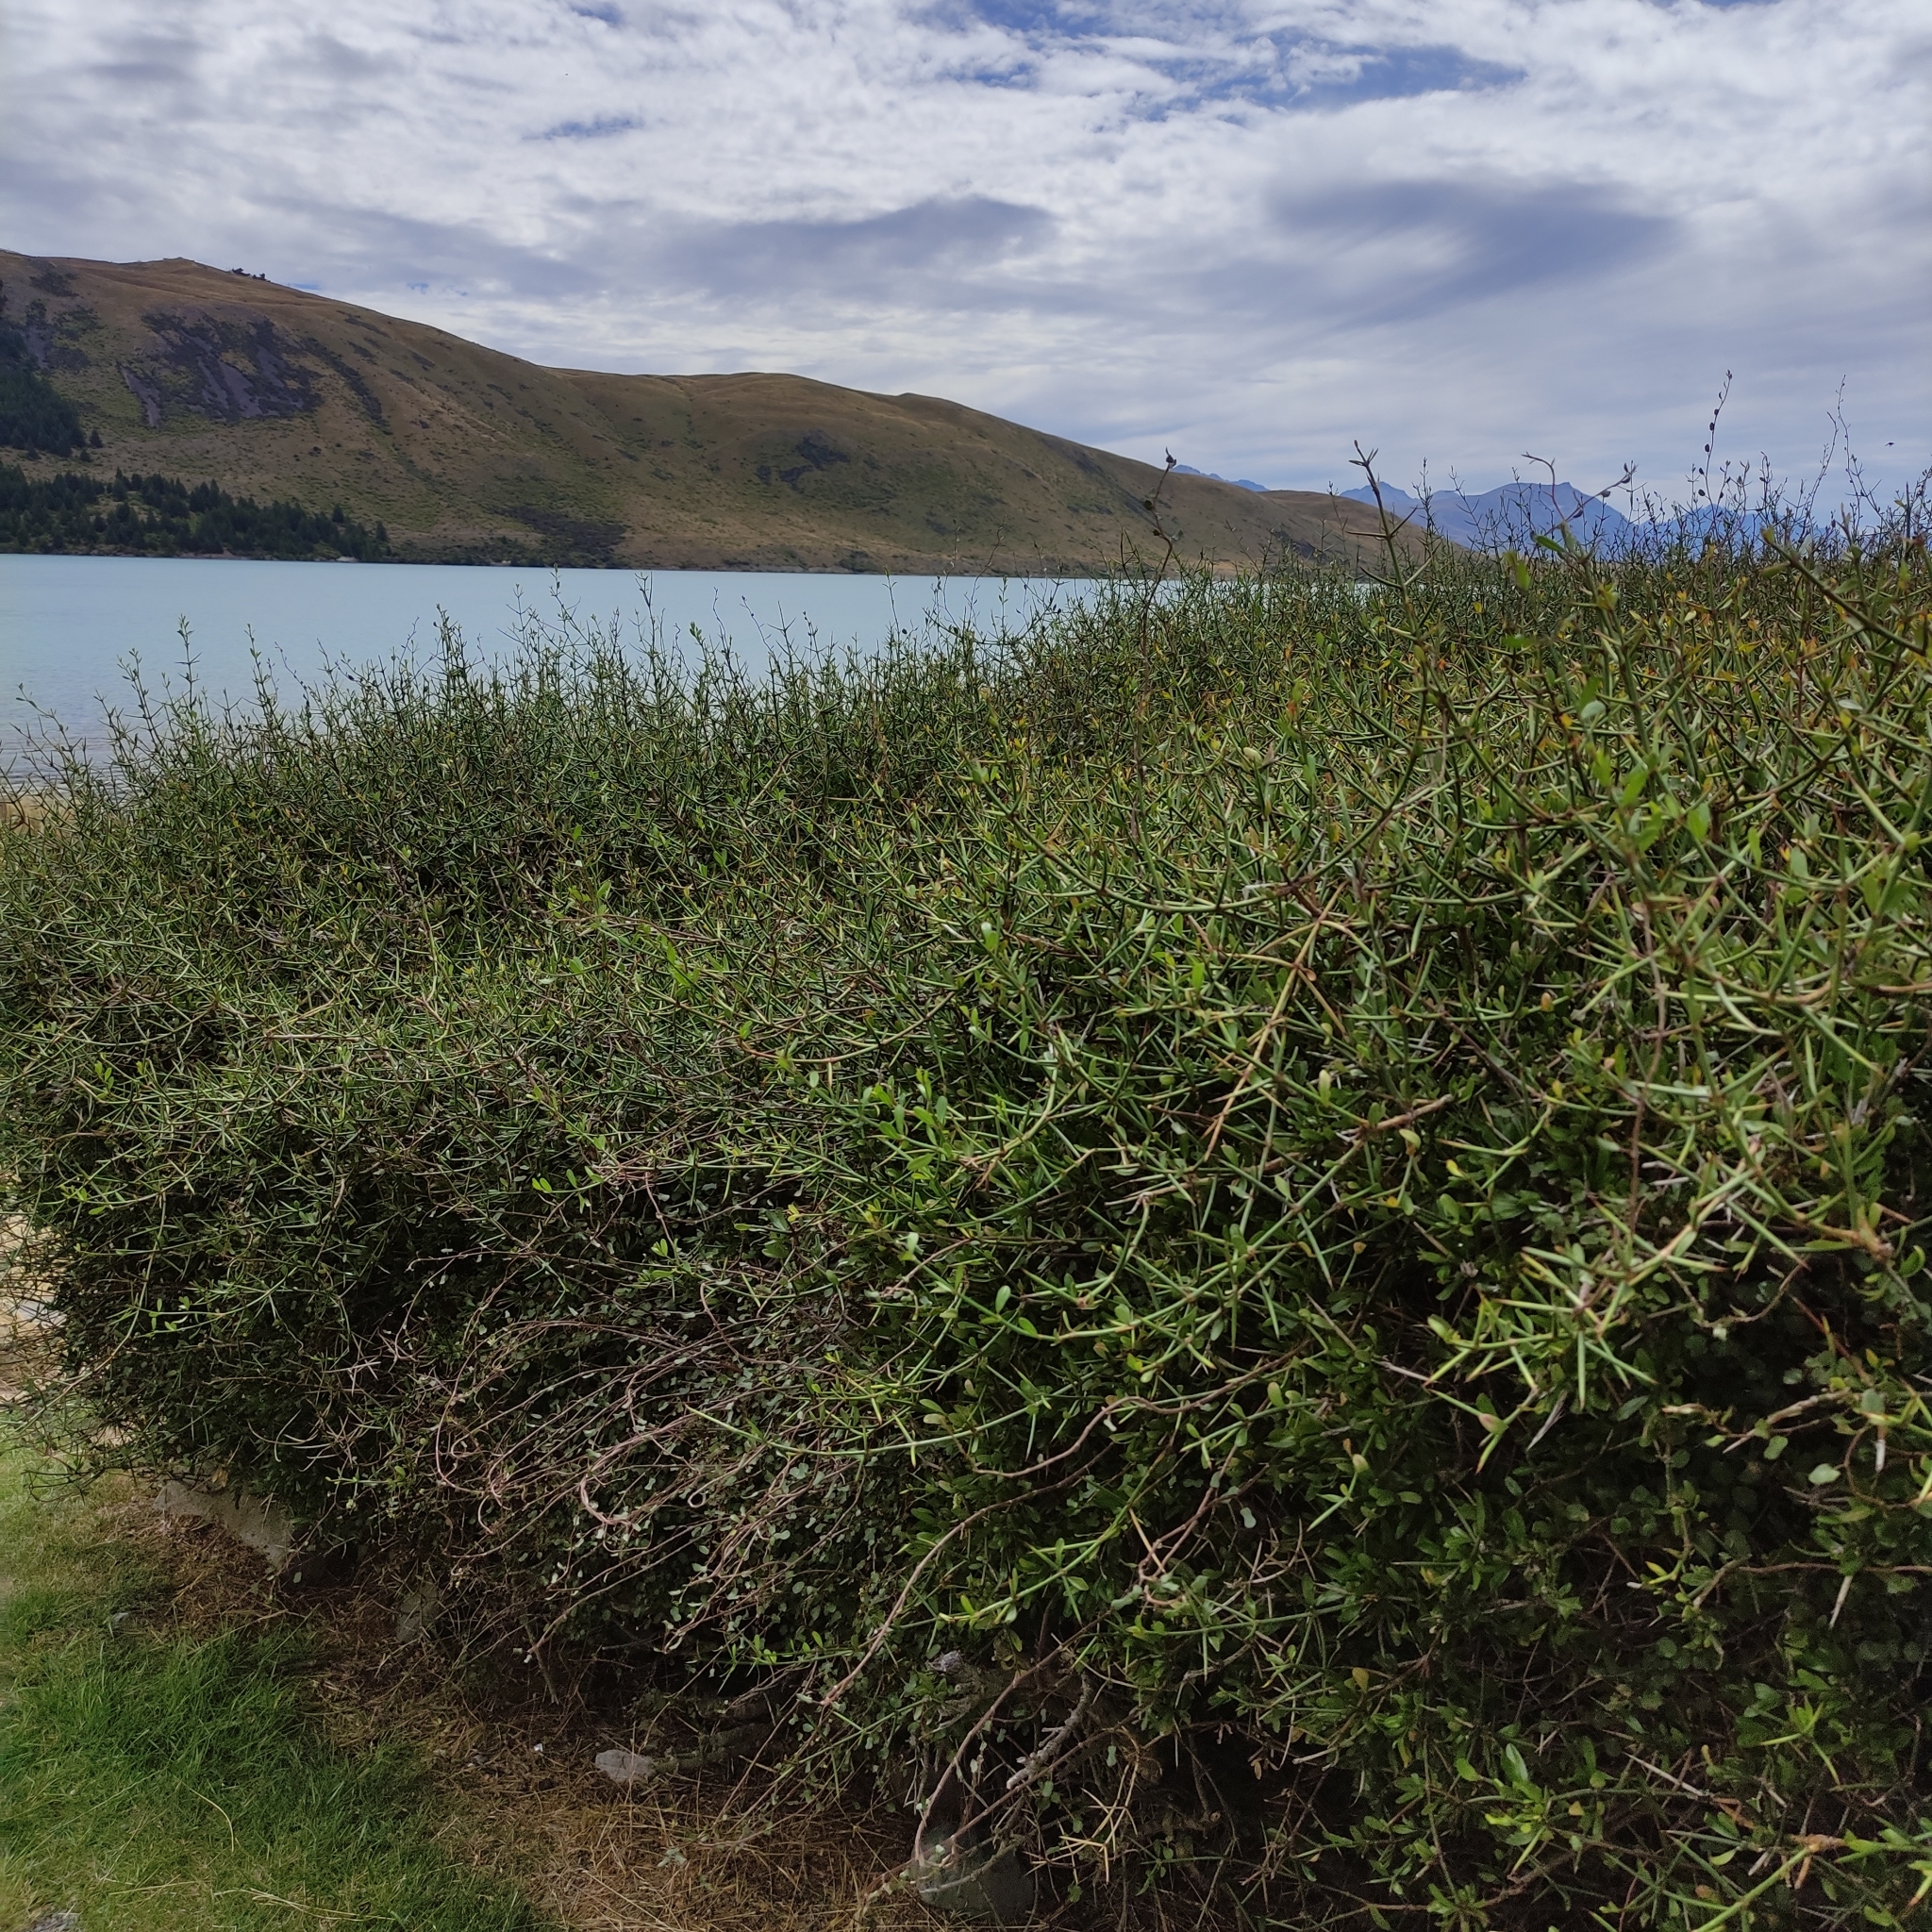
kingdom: Plantae
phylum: Tracheophyta
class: Magnoliopsida
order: Rosales
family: Rhamnaceae
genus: Discaria
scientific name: Discaria toumatou
